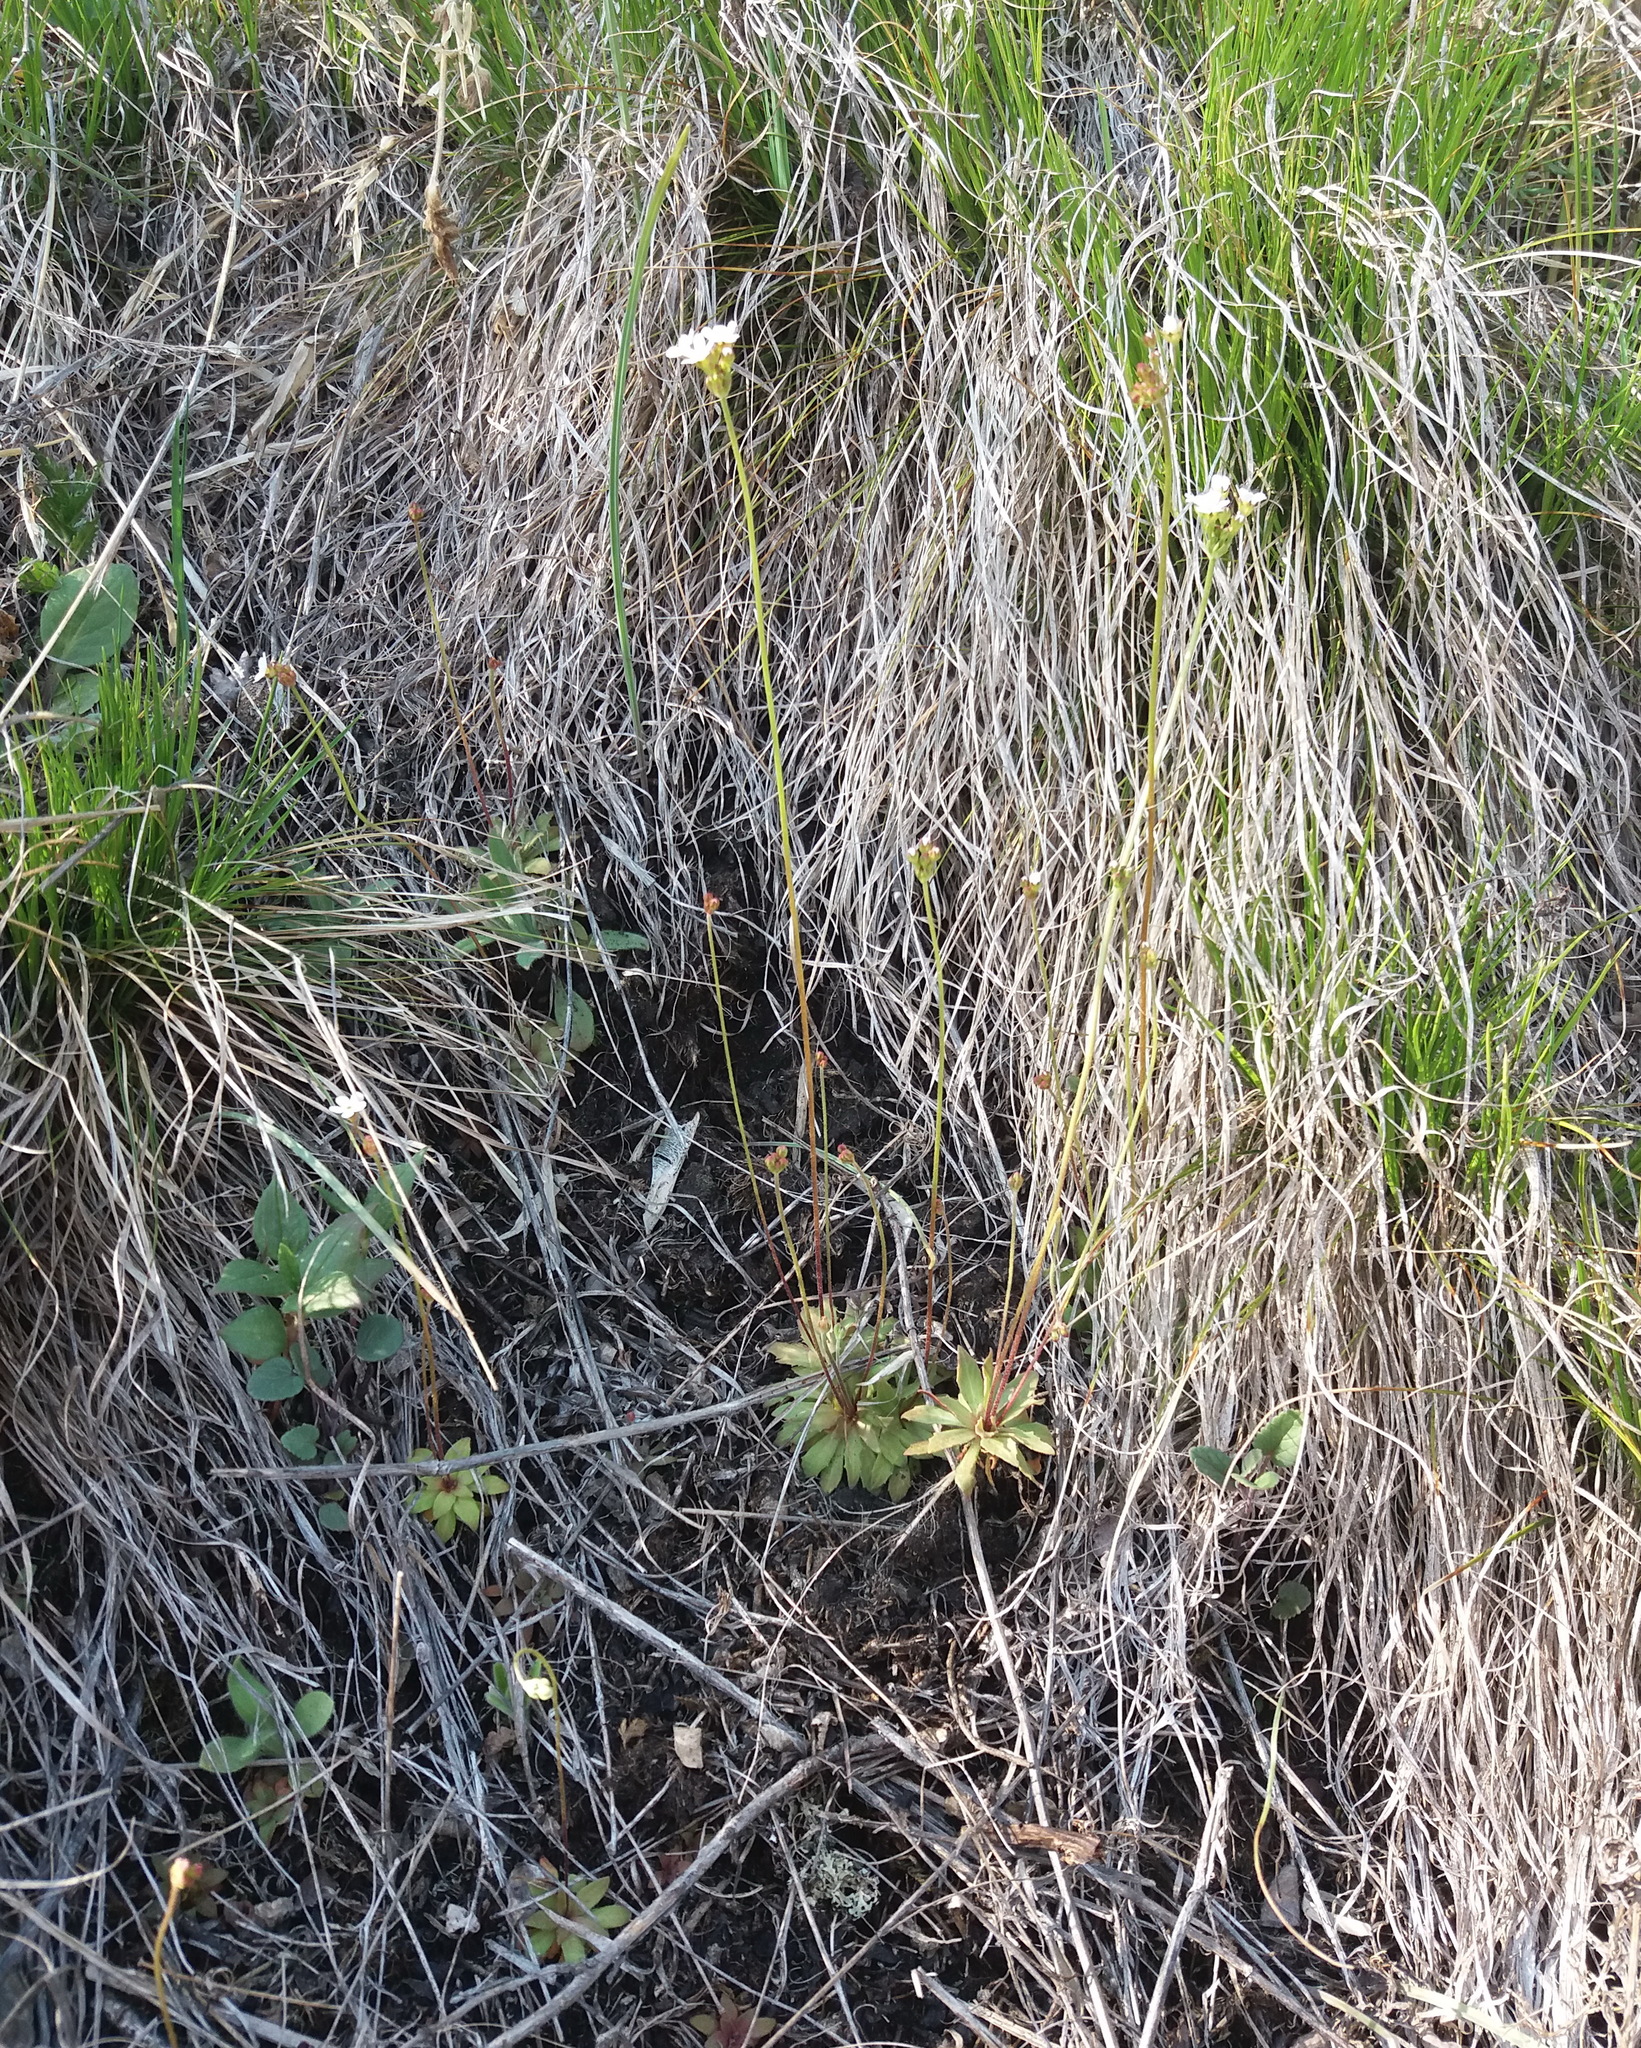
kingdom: Plantae
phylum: Tracheophyta
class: Magnoliopsida
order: Ericales
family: Primulaceae
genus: Androsace
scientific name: Androsace lactiflora
